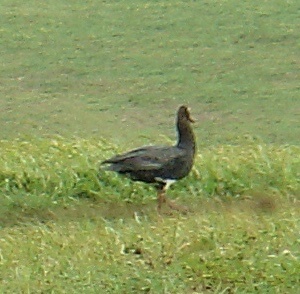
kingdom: Animalia
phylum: Chordata
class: Aves
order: Anseriformes
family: Anatidae
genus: Plectropterus
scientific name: Plectropterus gambensis
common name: Spur-winged goose
